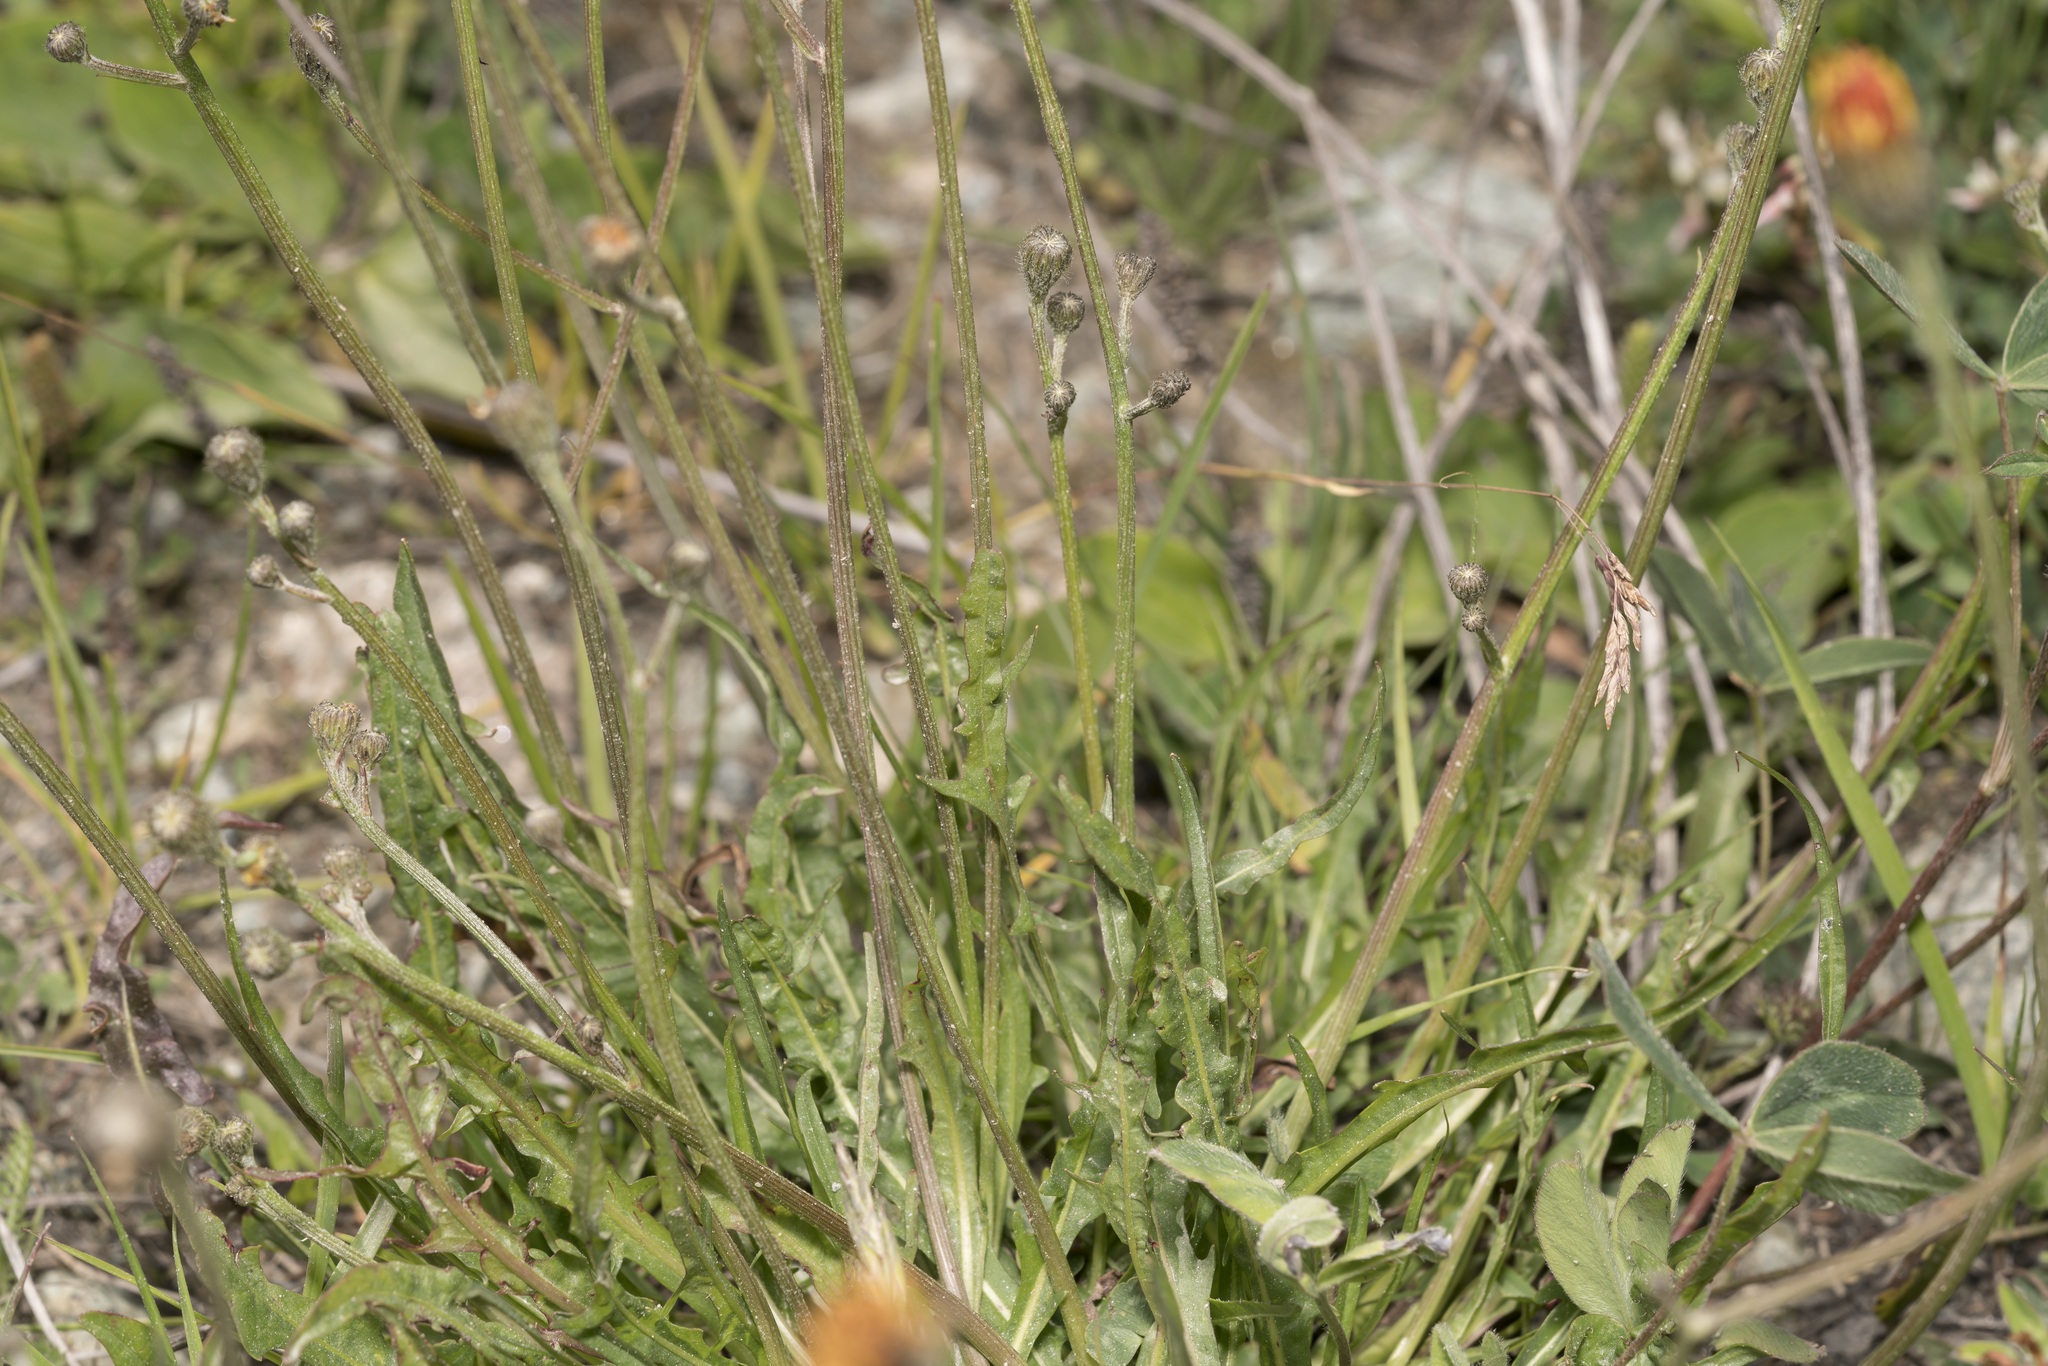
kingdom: Plantae
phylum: Tracheophyta
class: Magnoliopsida
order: Asterales
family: Asteraceae
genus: Scorzoneroides
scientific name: Scorzoneroides autumnalis
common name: Autumn hawkbit
